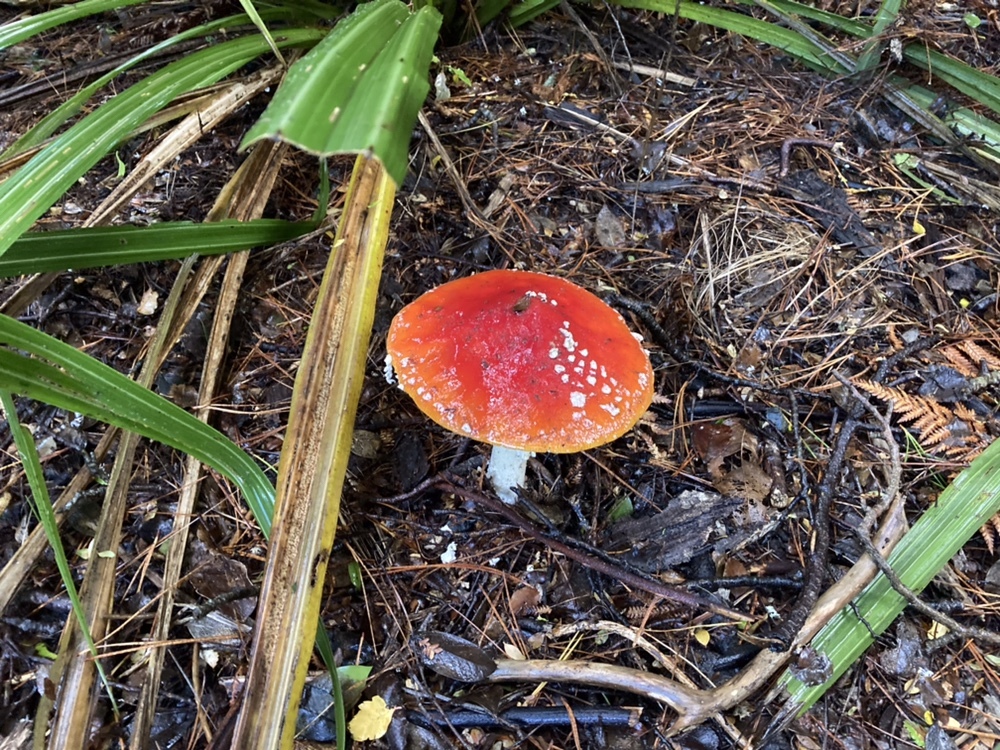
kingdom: Fungi
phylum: Basidiomycota
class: Agaricomycetes
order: Agaricales
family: Amanitaceae
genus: Amanita
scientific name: Amanita muscaria
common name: Fly agaric
